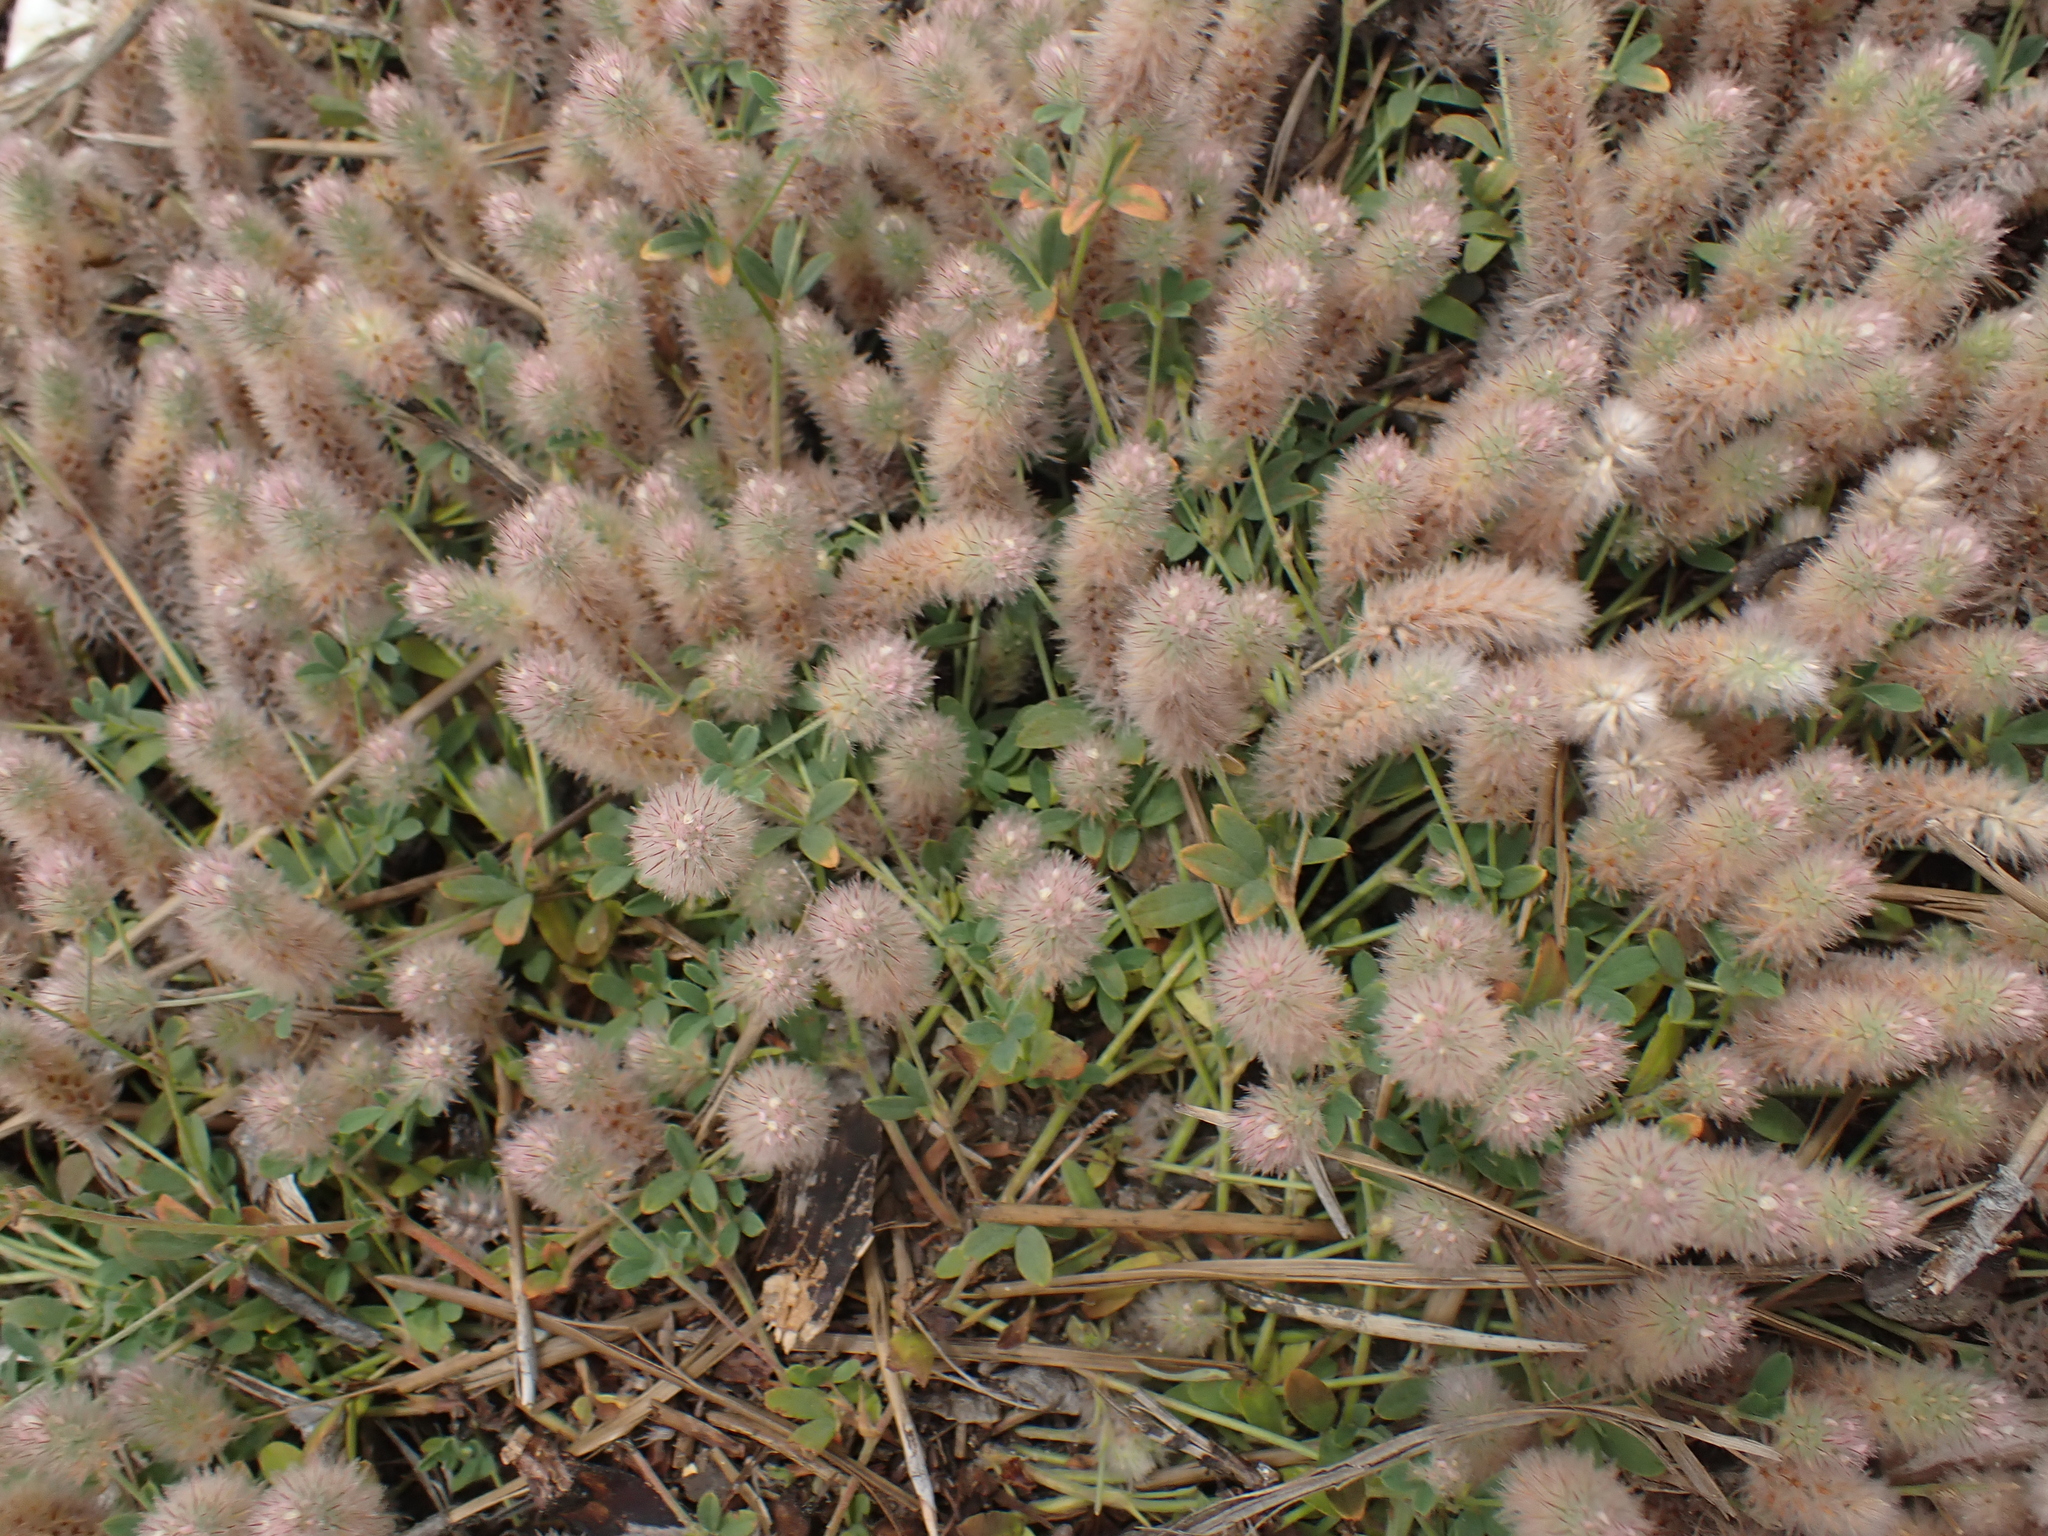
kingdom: Plantae
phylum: Tracheophyta
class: Magnoliopsida
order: Fabales
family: Fabaceae
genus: Trifolium
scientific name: Trifolium arvense
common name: Hare's-foot clover
